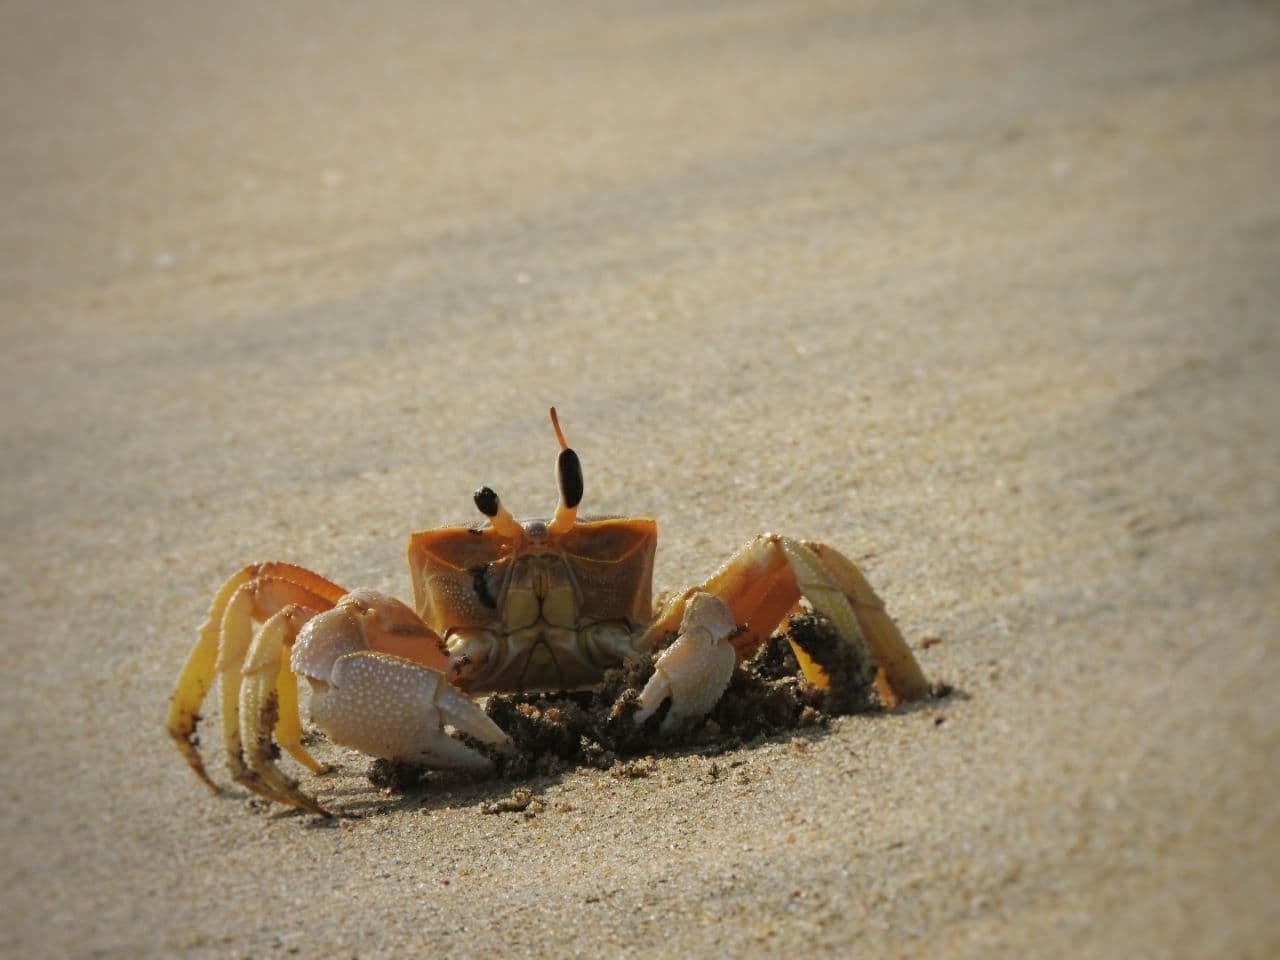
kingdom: Animalia
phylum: Arthropoda
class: Malacostraca
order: Decapoda
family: Ocypodidae
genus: Ocypode
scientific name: Ocypode brevicornis
